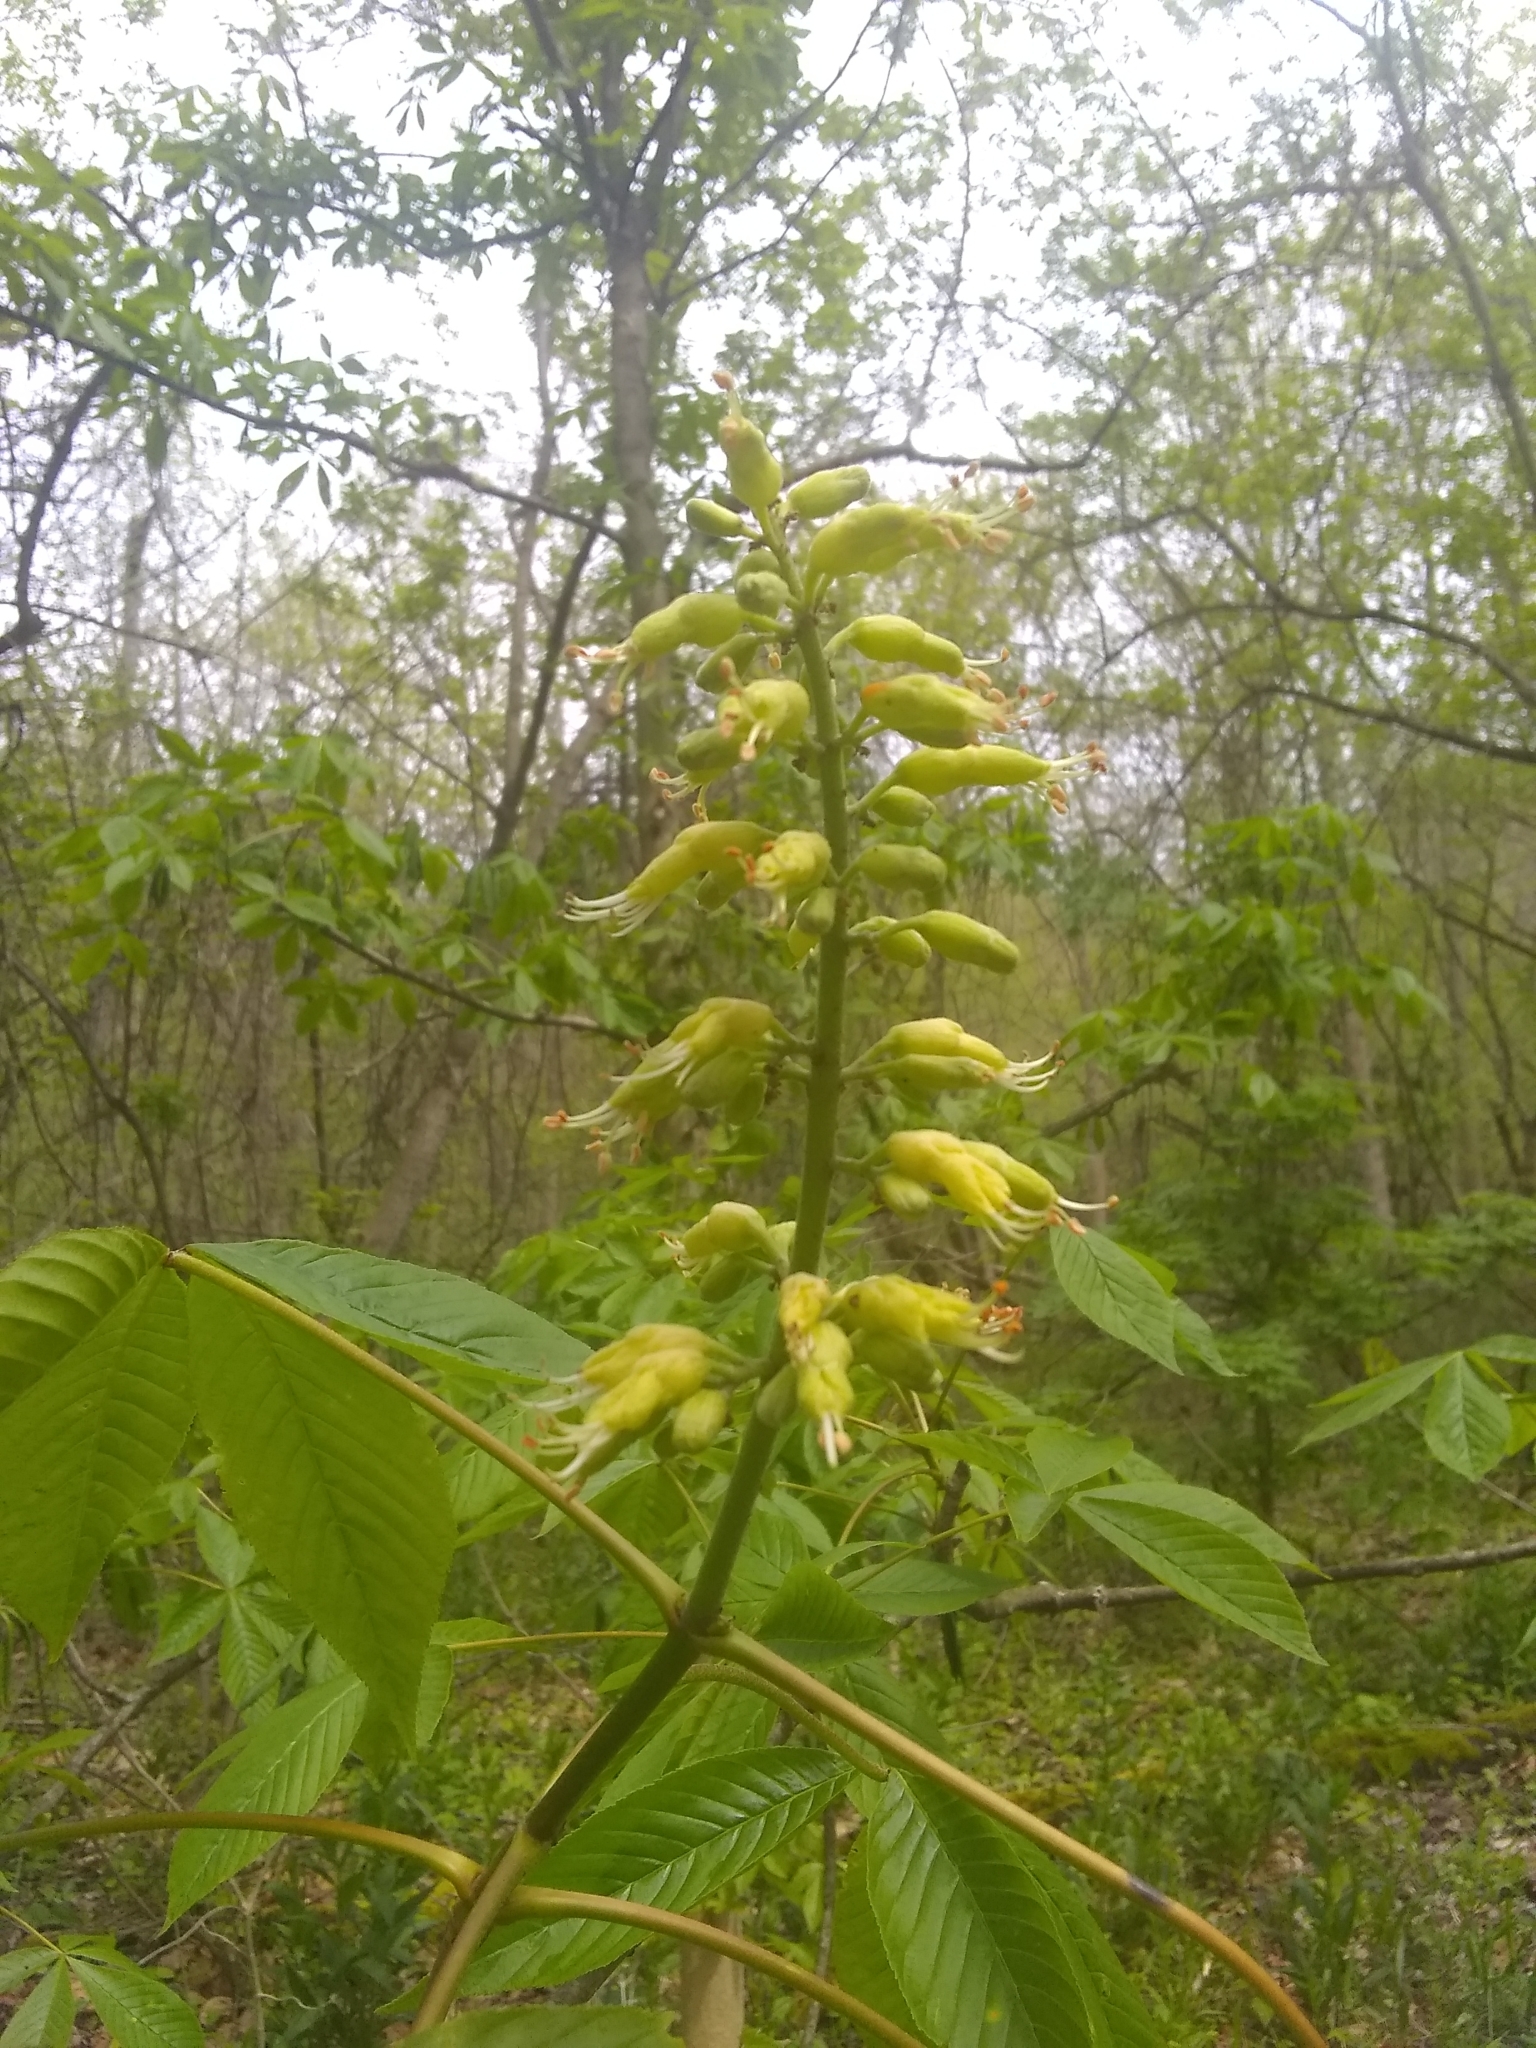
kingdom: Plantae
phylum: Tracheophyta
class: Magnoliopsida
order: Sapindales
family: Sapindaceae
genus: Aesculus
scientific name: Aesculus glabra
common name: Ohio buckeye
